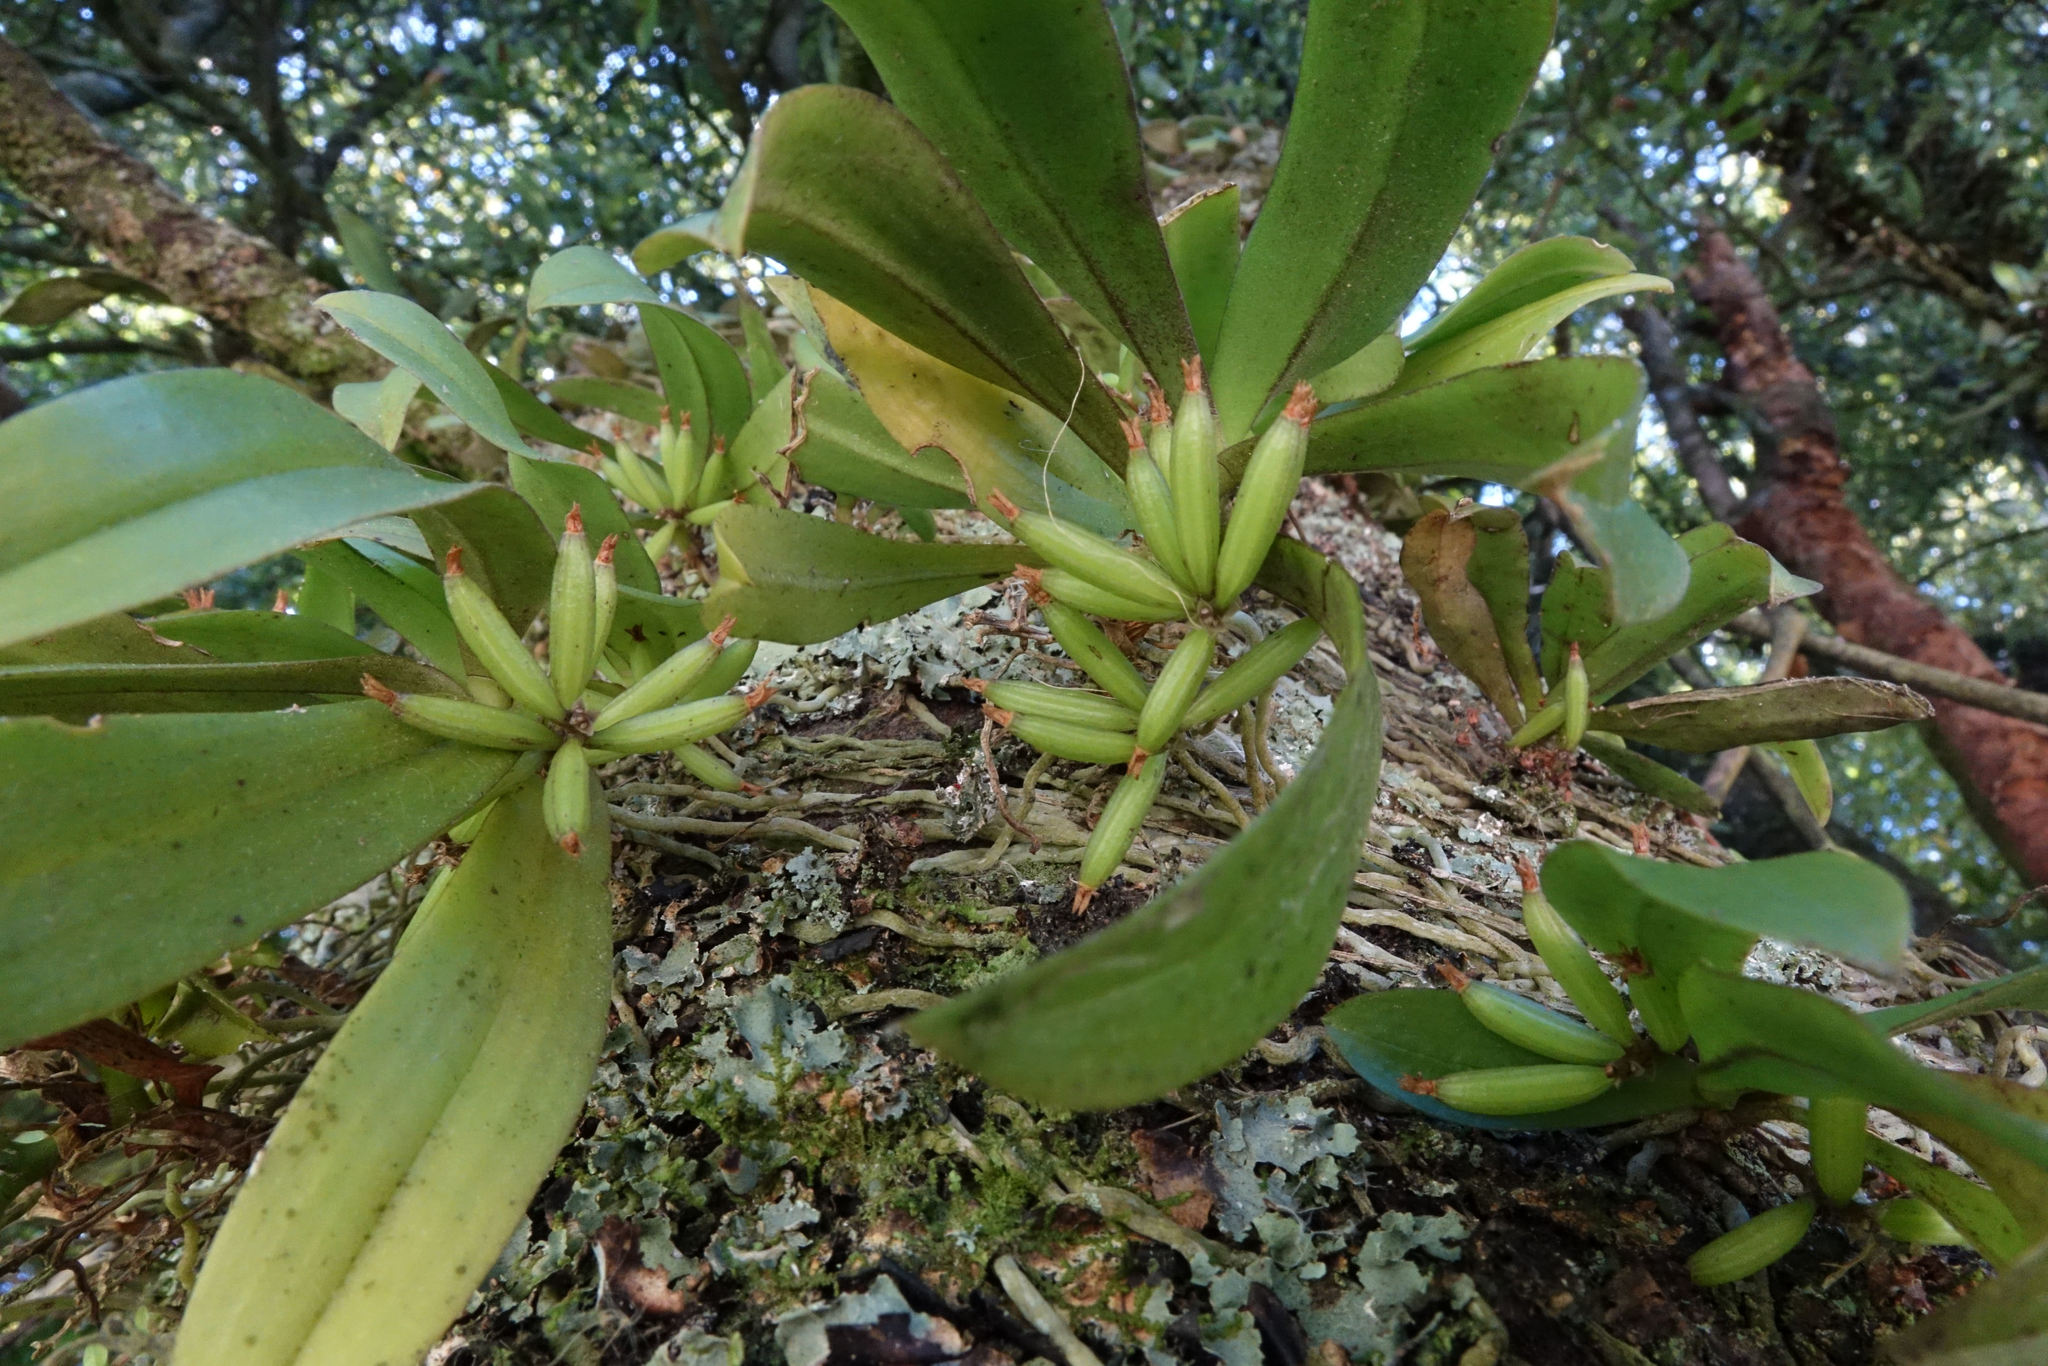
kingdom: Plantae
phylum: Tracheophyta
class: Liliopsida
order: Asparagales
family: Orchidaceae
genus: Drymoanthus
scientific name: Drymoanthus adversus
